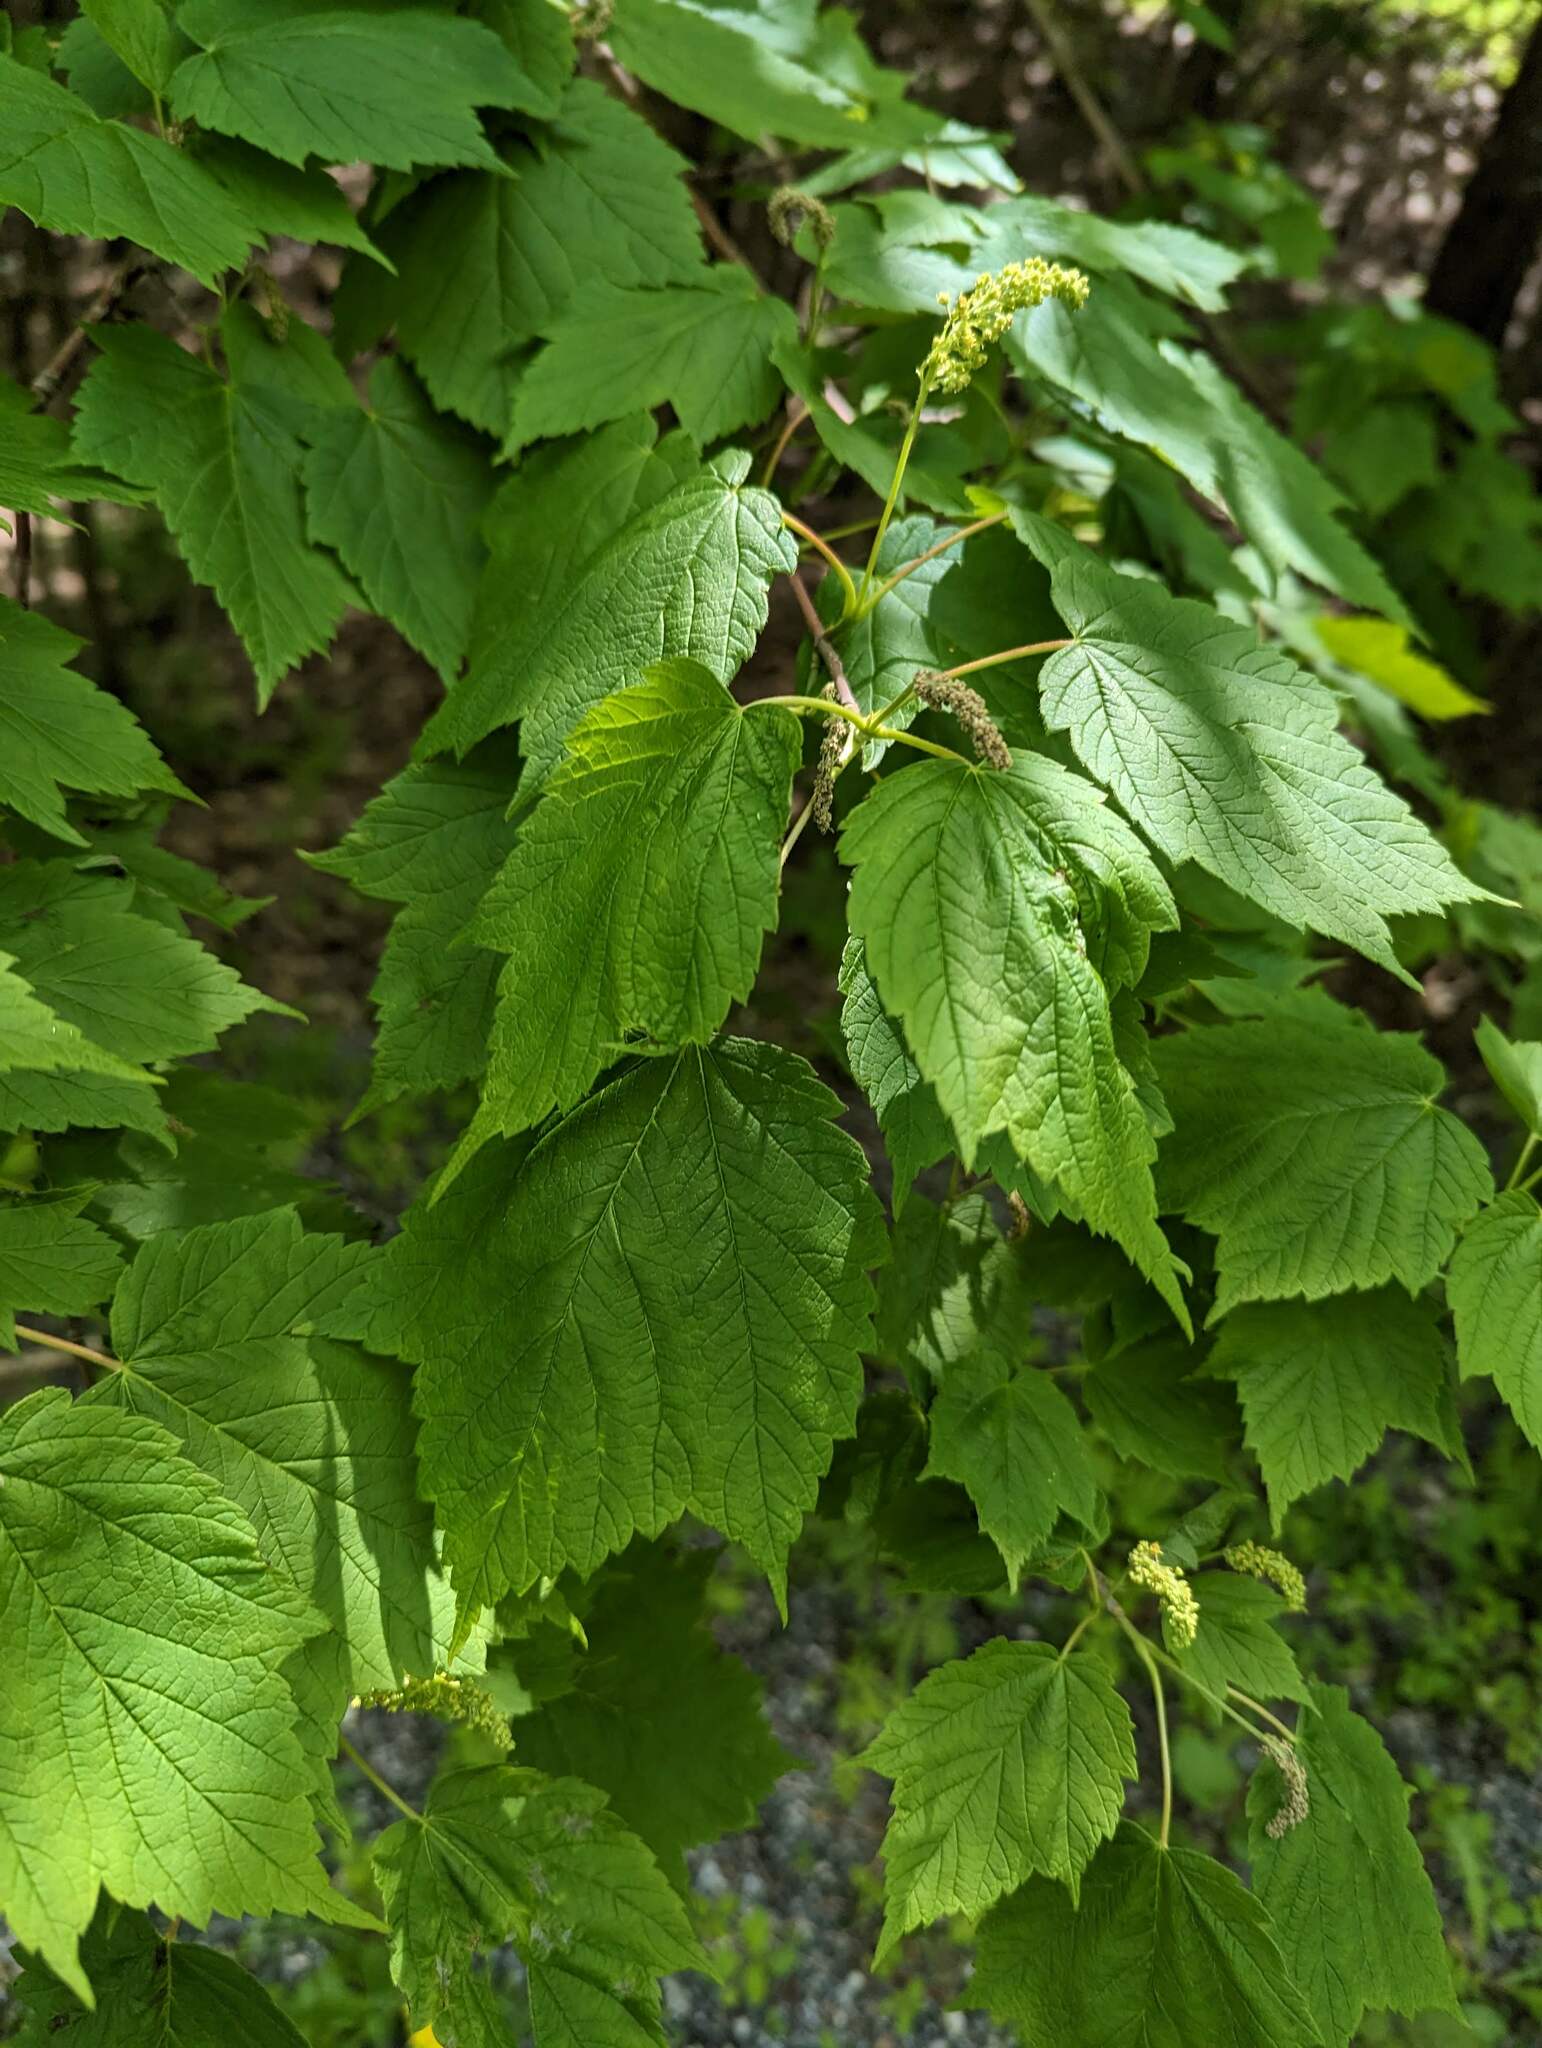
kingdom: Plantae
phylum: Tracheophyta
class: Magnoliopsida
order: Sapindales
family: Sapindaceae
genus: Acer
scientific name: Acer spicatum
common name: Mountain maple
